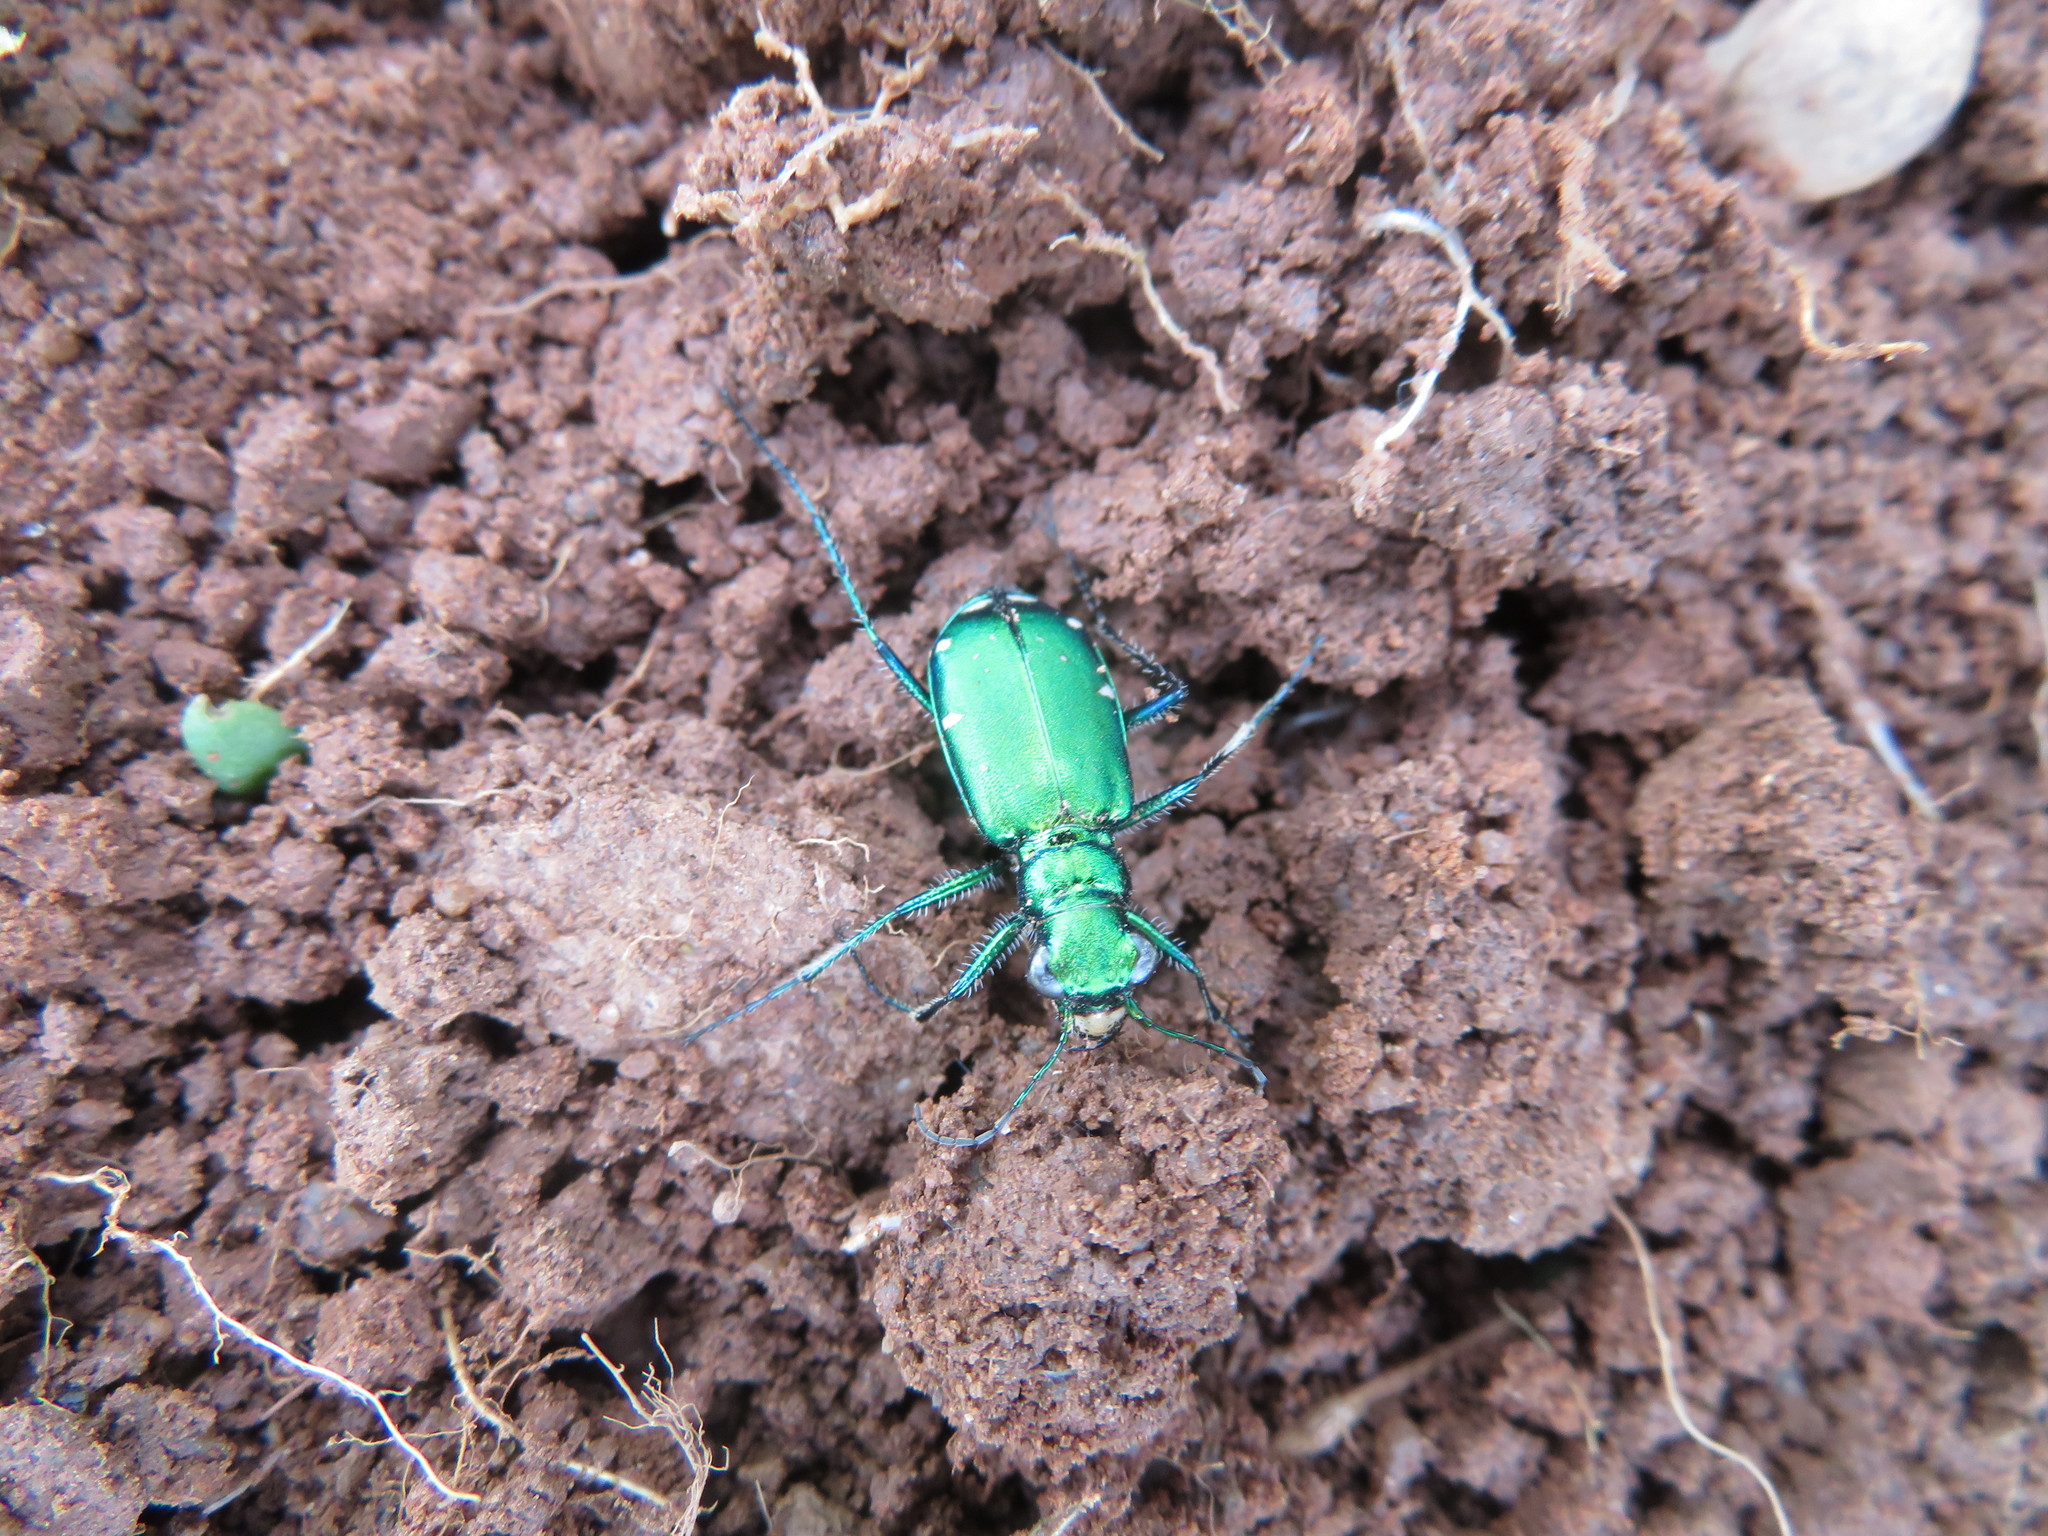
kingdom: Animalia
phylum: Arthropoda
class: Insecta
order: Coleoptera
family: Carabidae
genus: Cicindela
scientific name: Cicindela sexguttata
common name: Six-spotted tiger beetle
